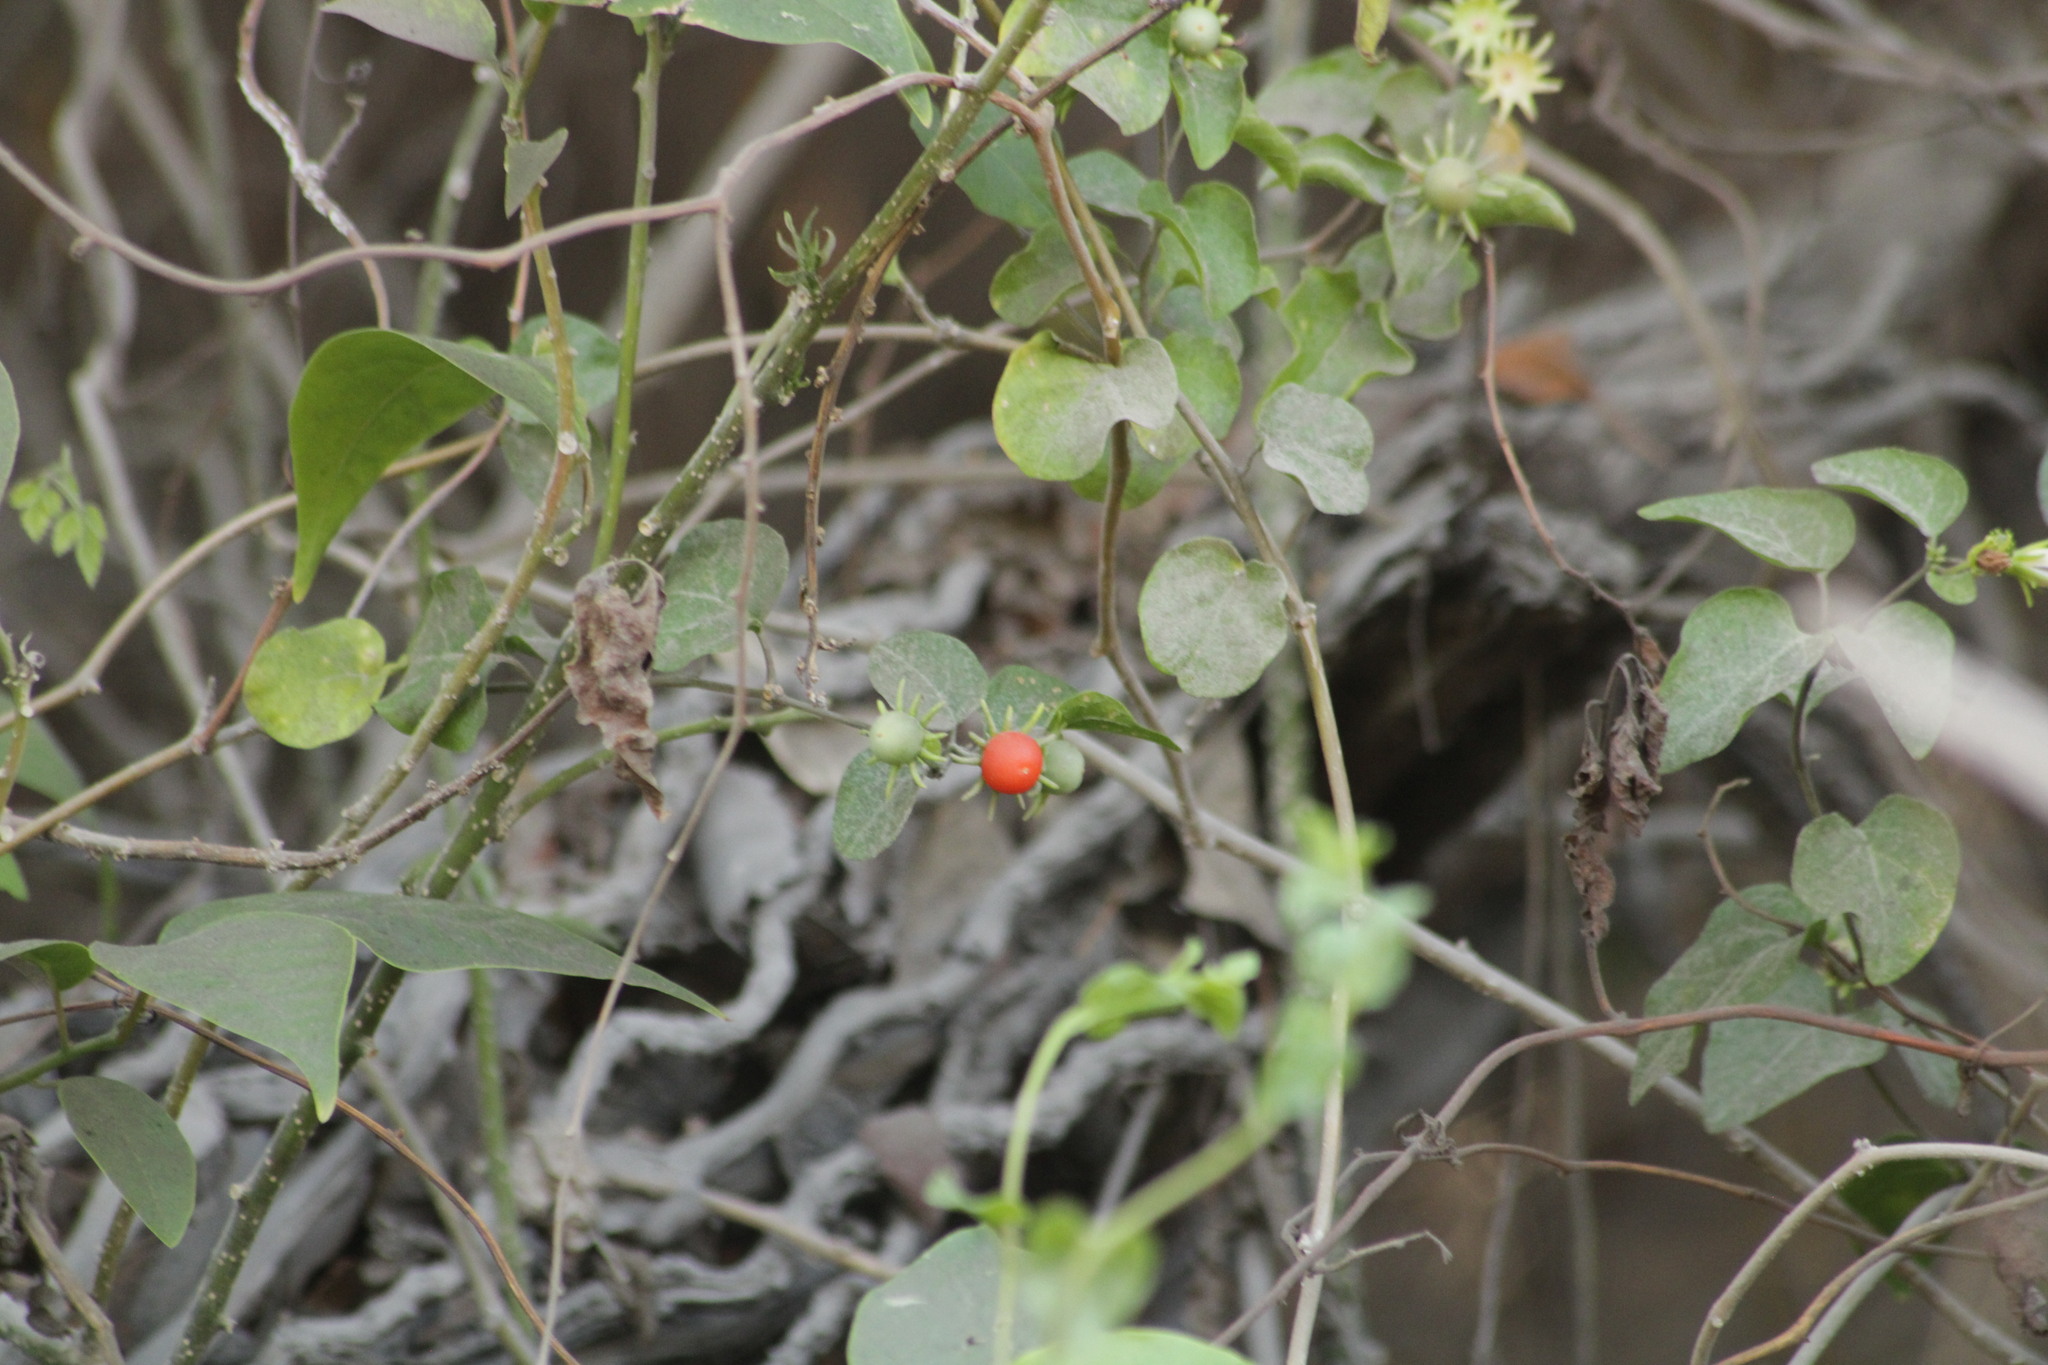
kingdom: Plantae
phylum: Tracheophyta
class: Magnoliopsida
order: Solanales
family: Solanaceae
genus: Lycianthes
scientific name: Lycianthes scandens
